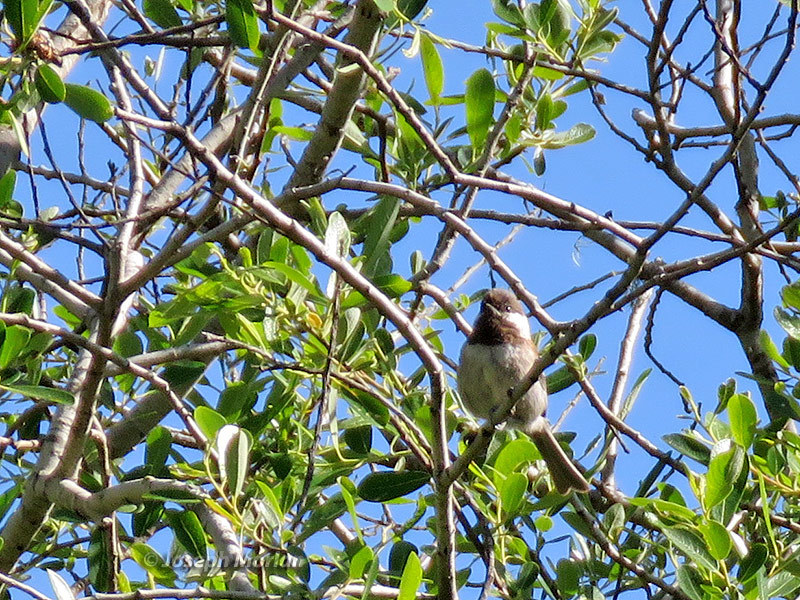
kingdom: Animalia
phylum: Chordata
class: Aves
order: Passeriformes
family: Paridae
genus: Poecile
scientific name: Poecile rufescens
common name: Chestnut-backed chickadee
